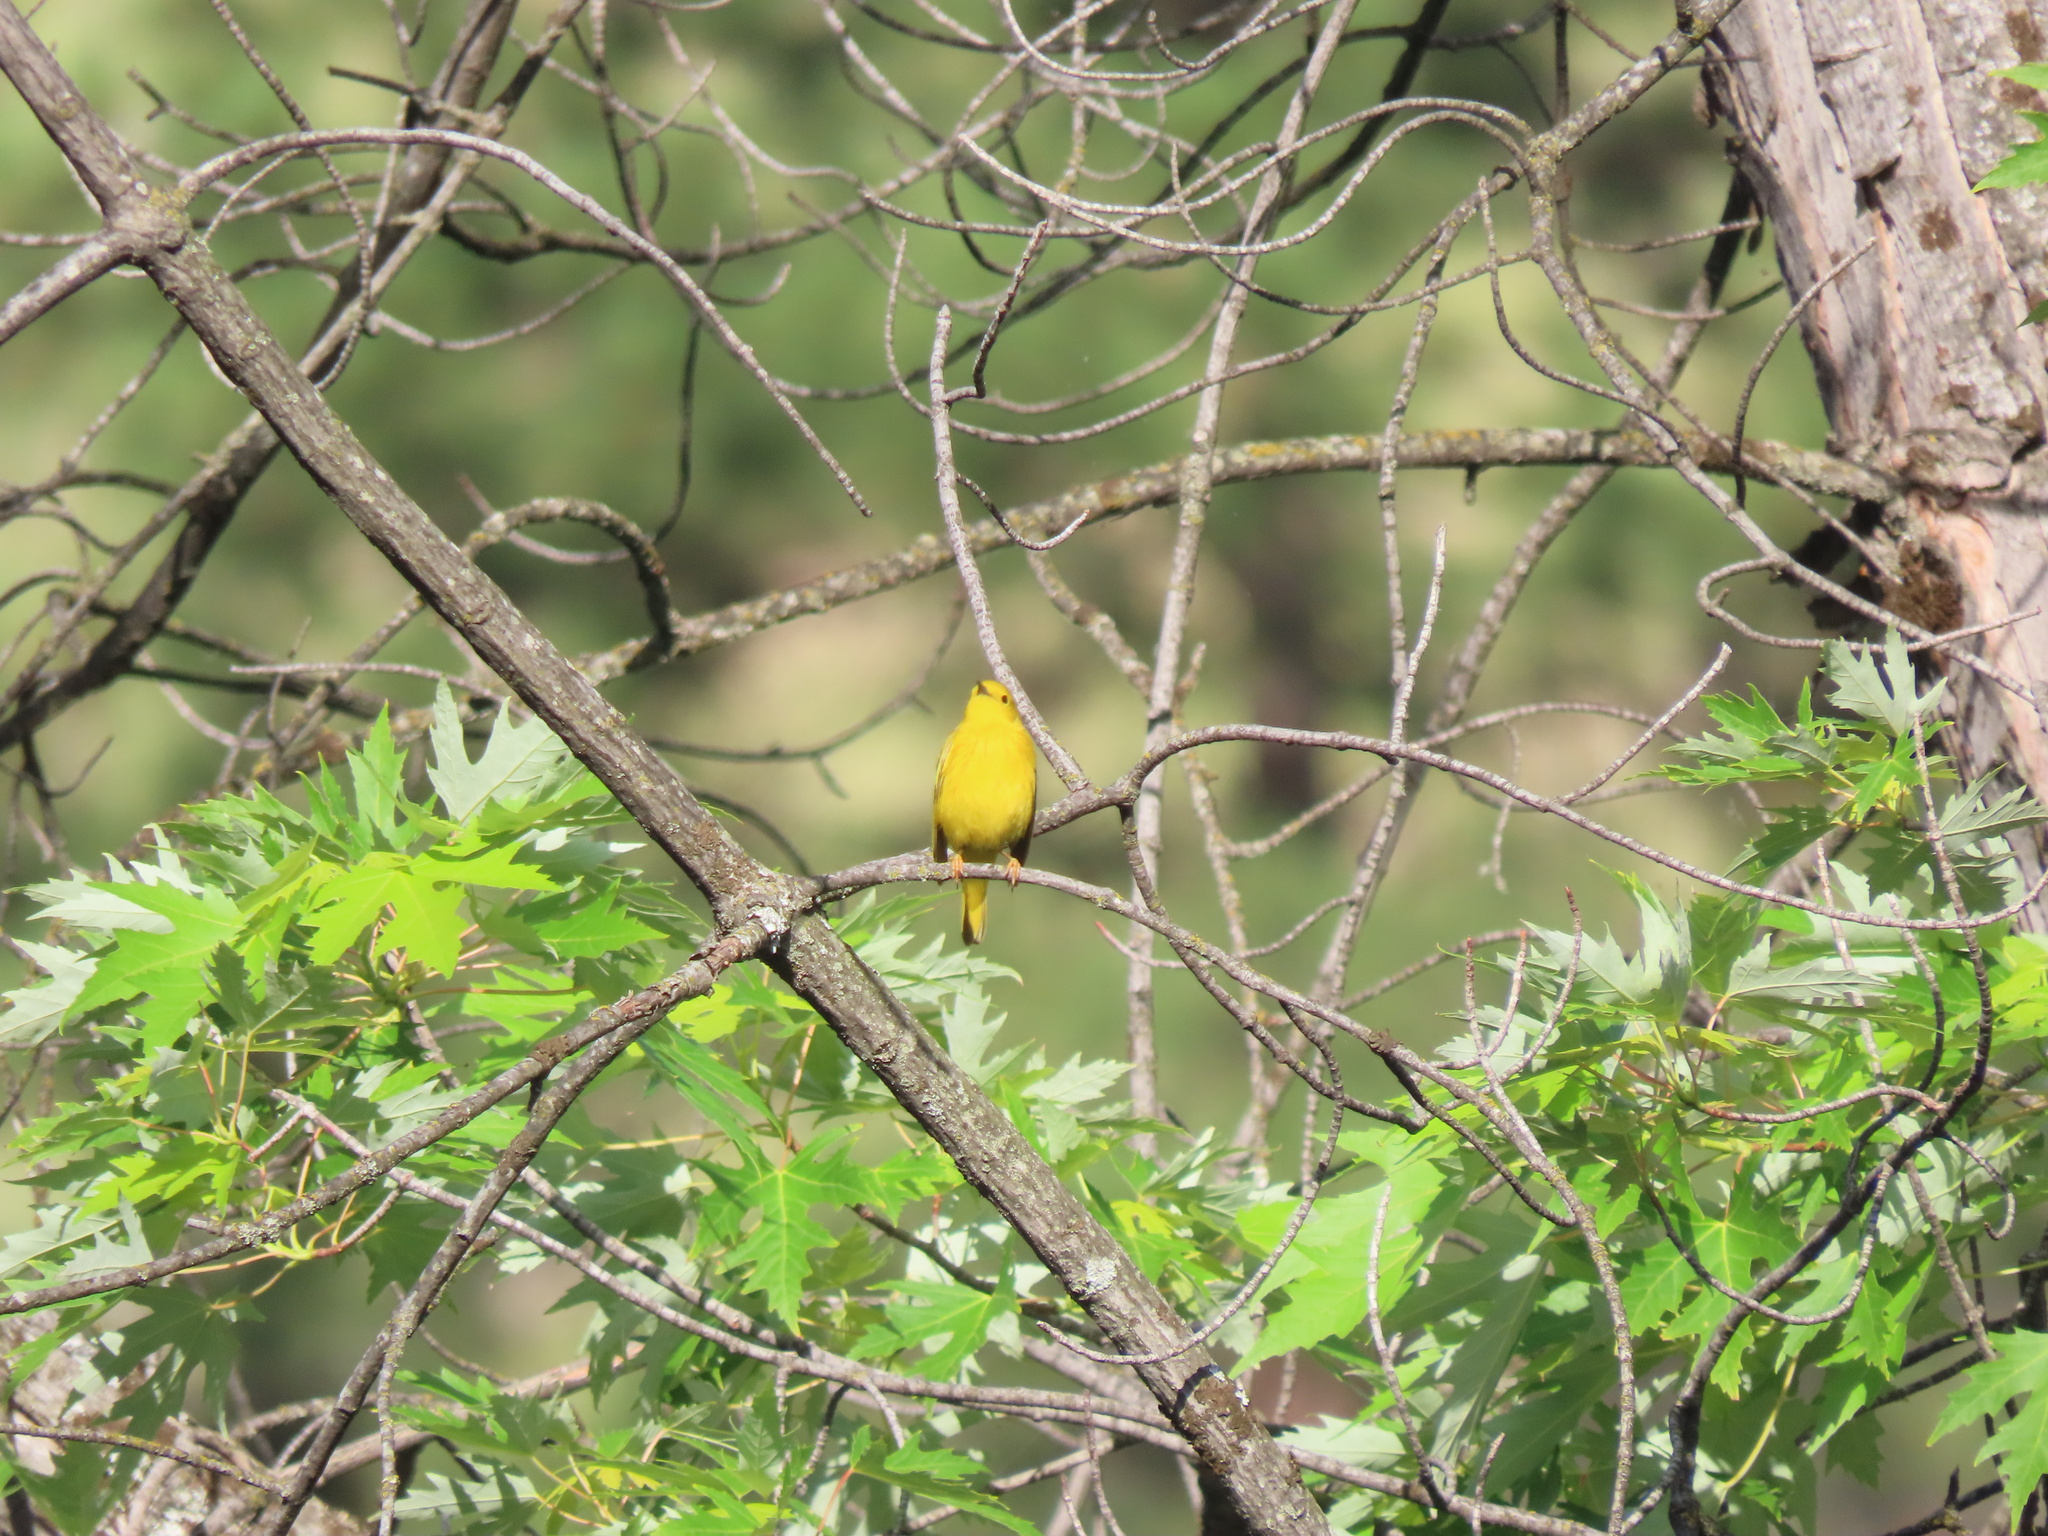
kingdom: Animalia
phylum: Chordata
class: Aves
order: Passeriformes
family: Parulidae
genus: Setophaga
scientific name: Setophaga petechia
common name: Yellow warbler
